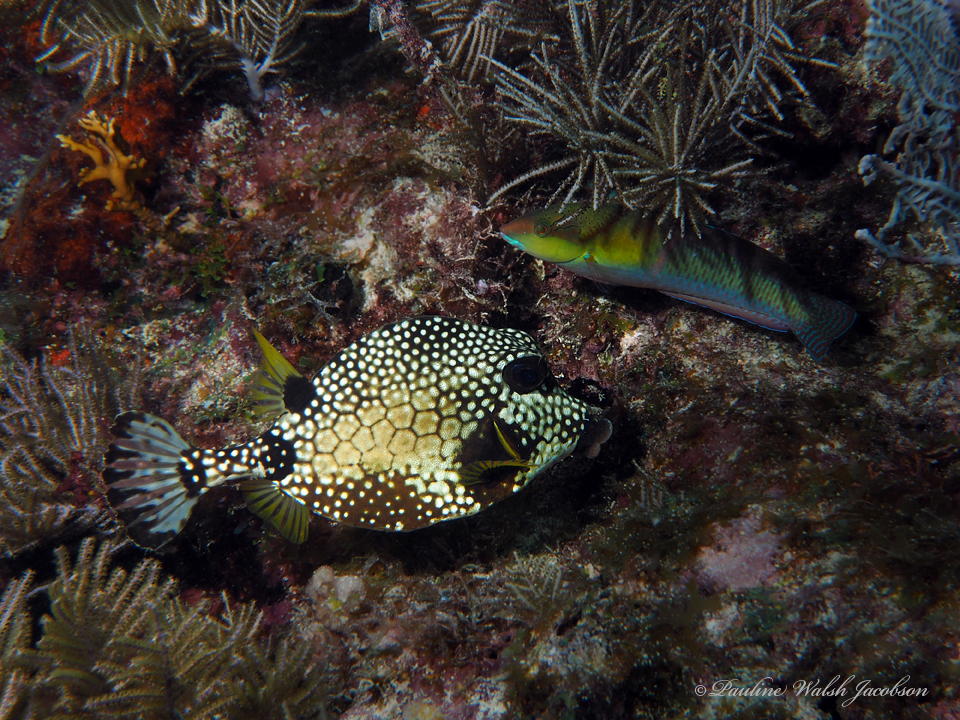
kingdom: Animalia
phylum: Chordata
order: Tetraodontiformes
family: Ostraciidae
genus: Lactophrys
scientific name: Lactophrys triqueter
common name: Smooth trunkfish
